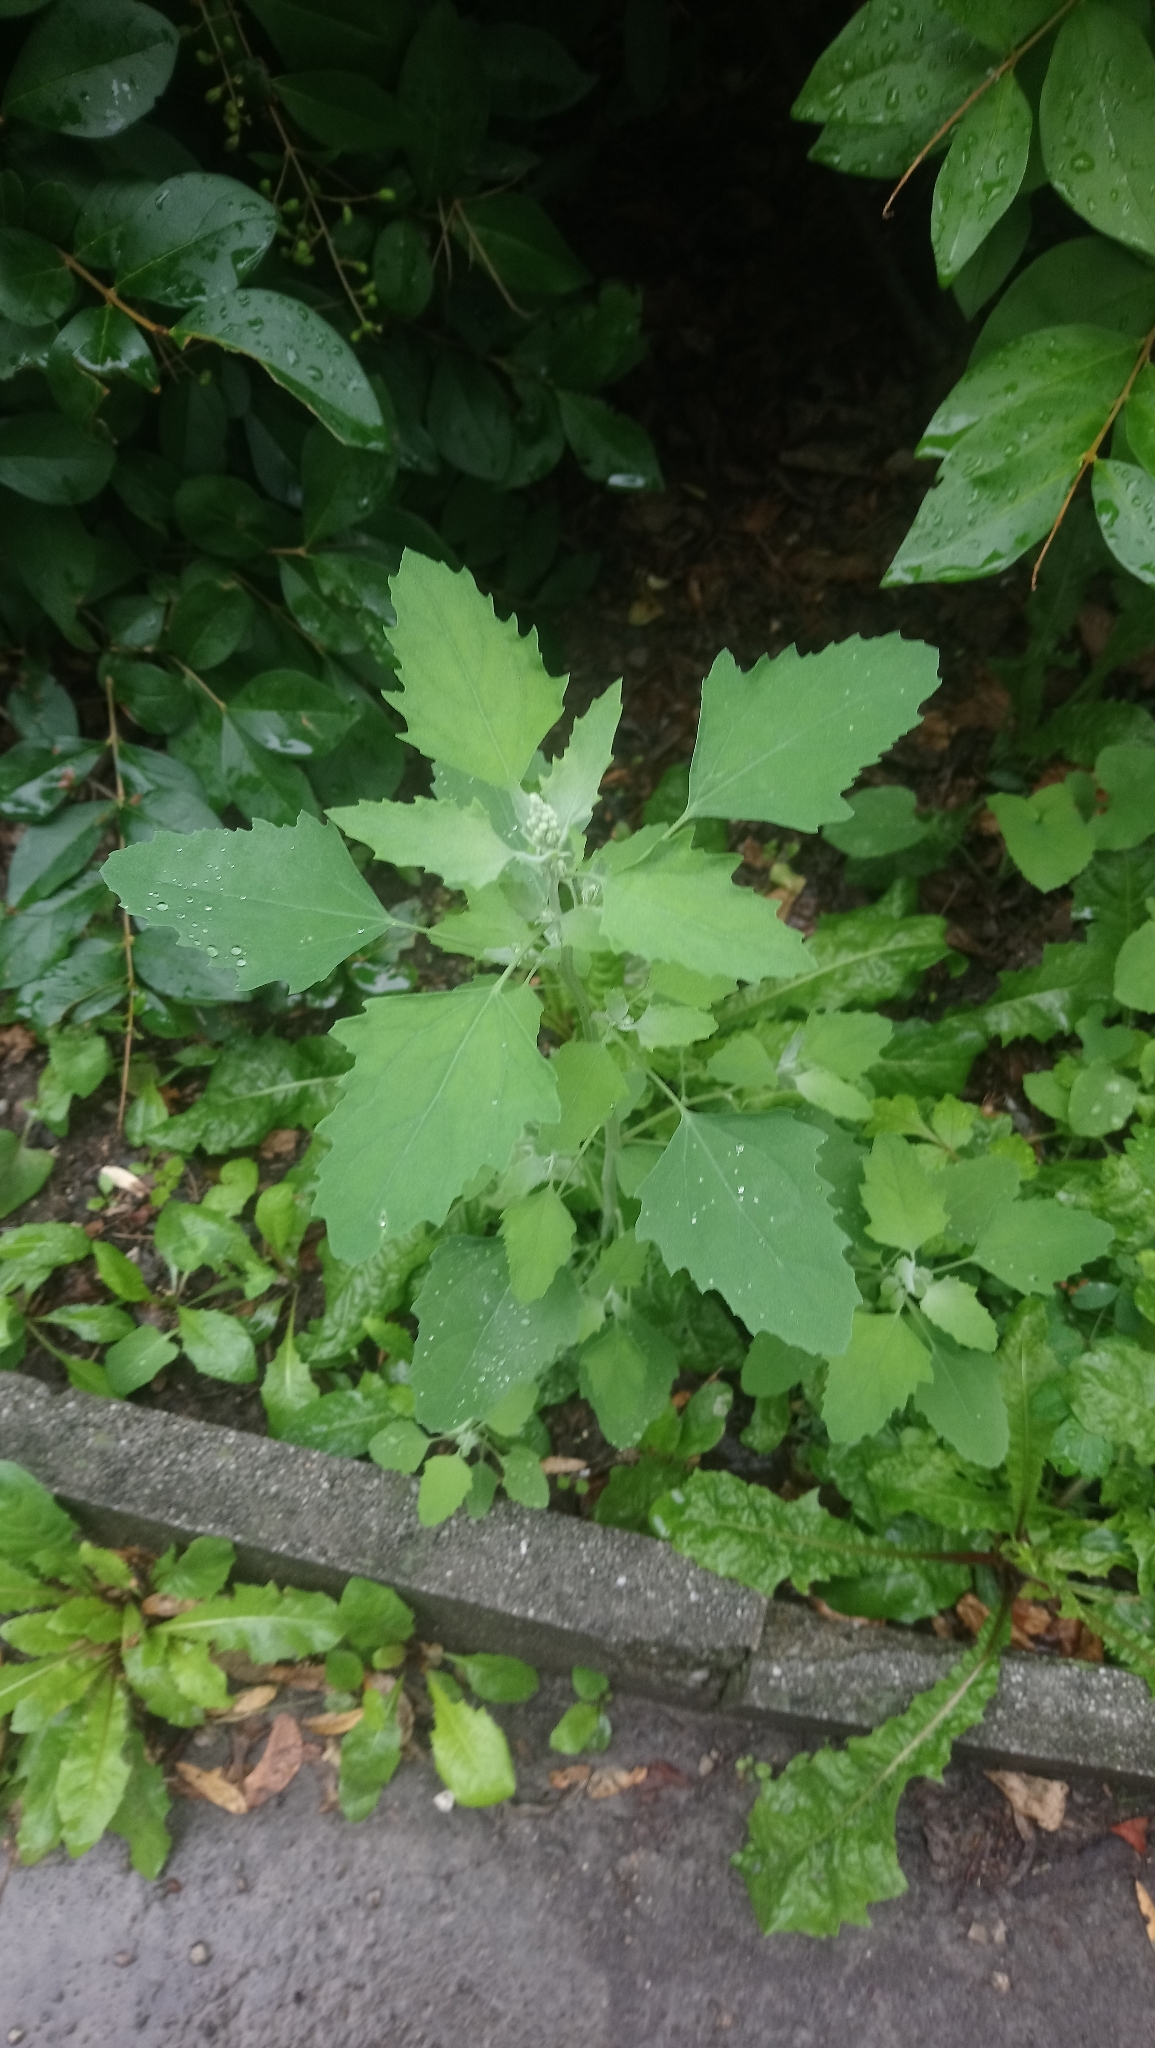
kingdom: Plantae
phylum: Tracheophyta
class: Magnoliopsida
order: Caryophyllales
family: Amaranthaceae
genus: Chenopodium
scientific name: Chenopodium album
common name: Fat-hen
